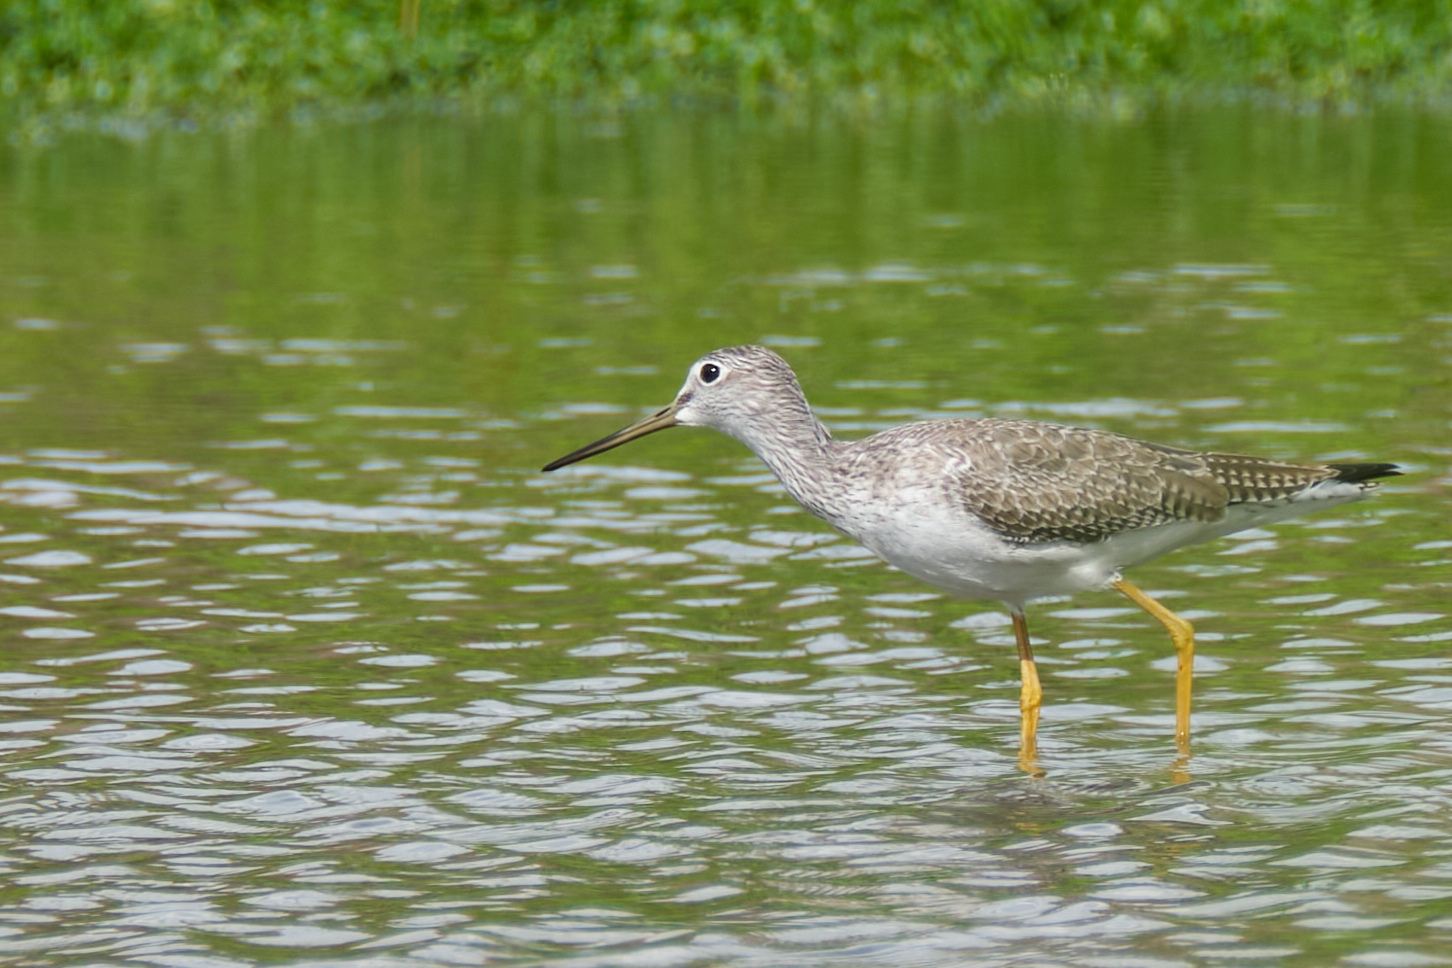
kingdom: Animalia
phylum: Chordata
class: Aves
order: Charadriiformes
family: Scolopacidae
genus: Tringa
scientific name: Tringa melanoleuca
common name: Greater yellowlegs
